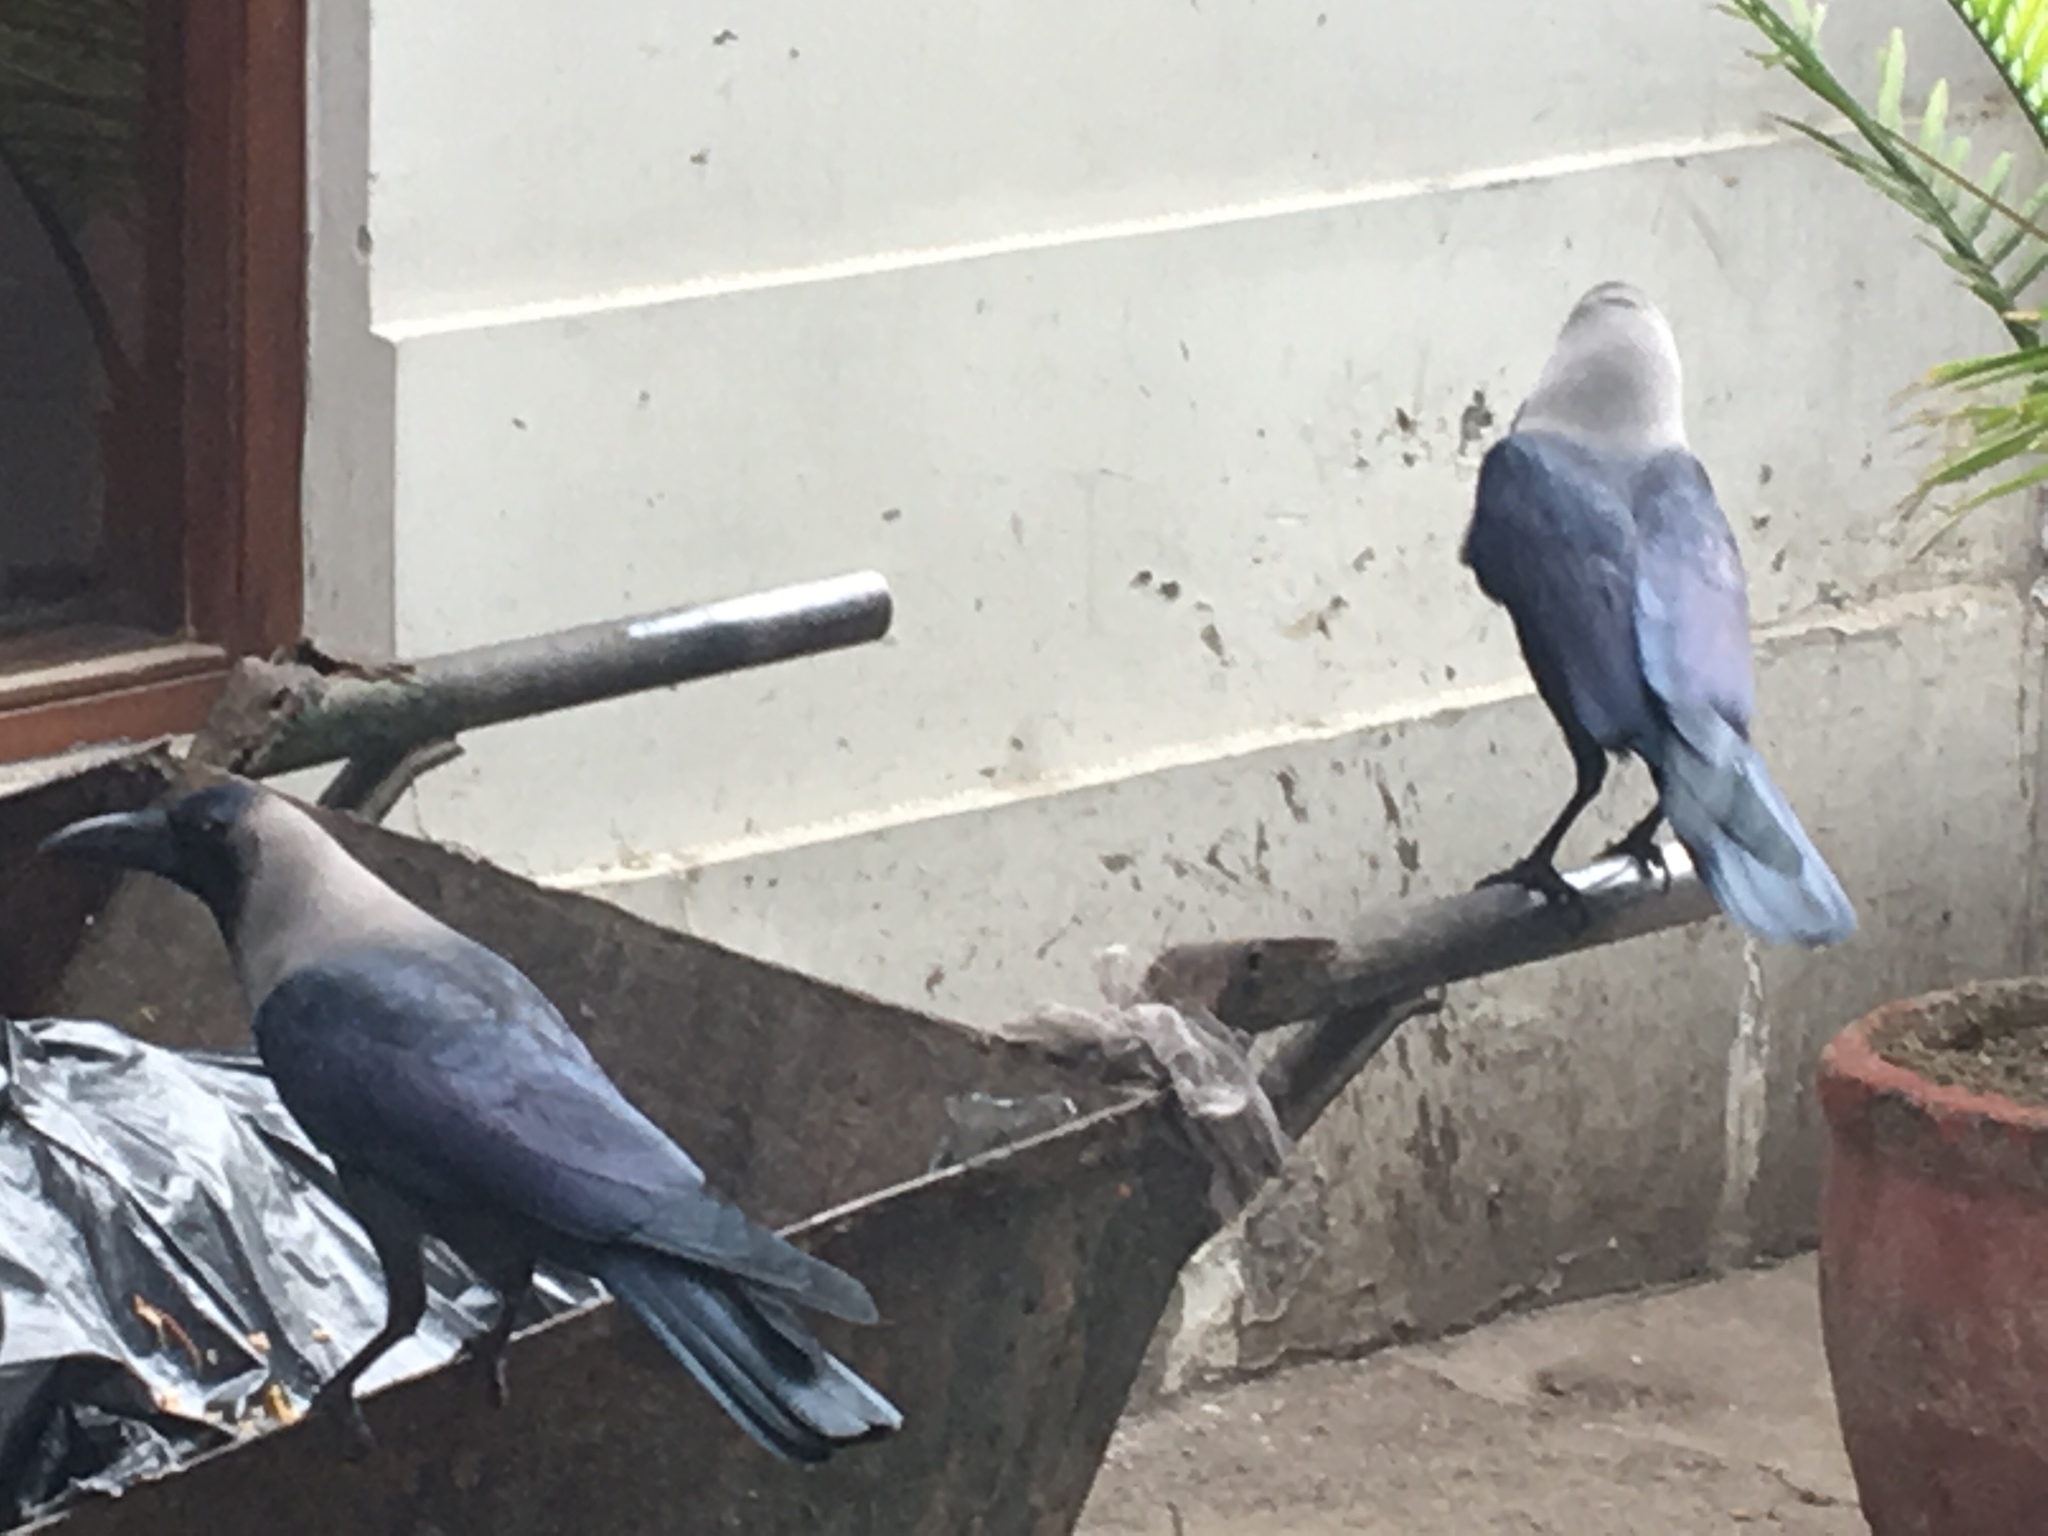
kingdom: Animalia
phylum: Chordata
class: Aves
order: Passeriformes
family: Corvidae
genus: Corvus
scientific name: Corvus splendens
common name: House crow
